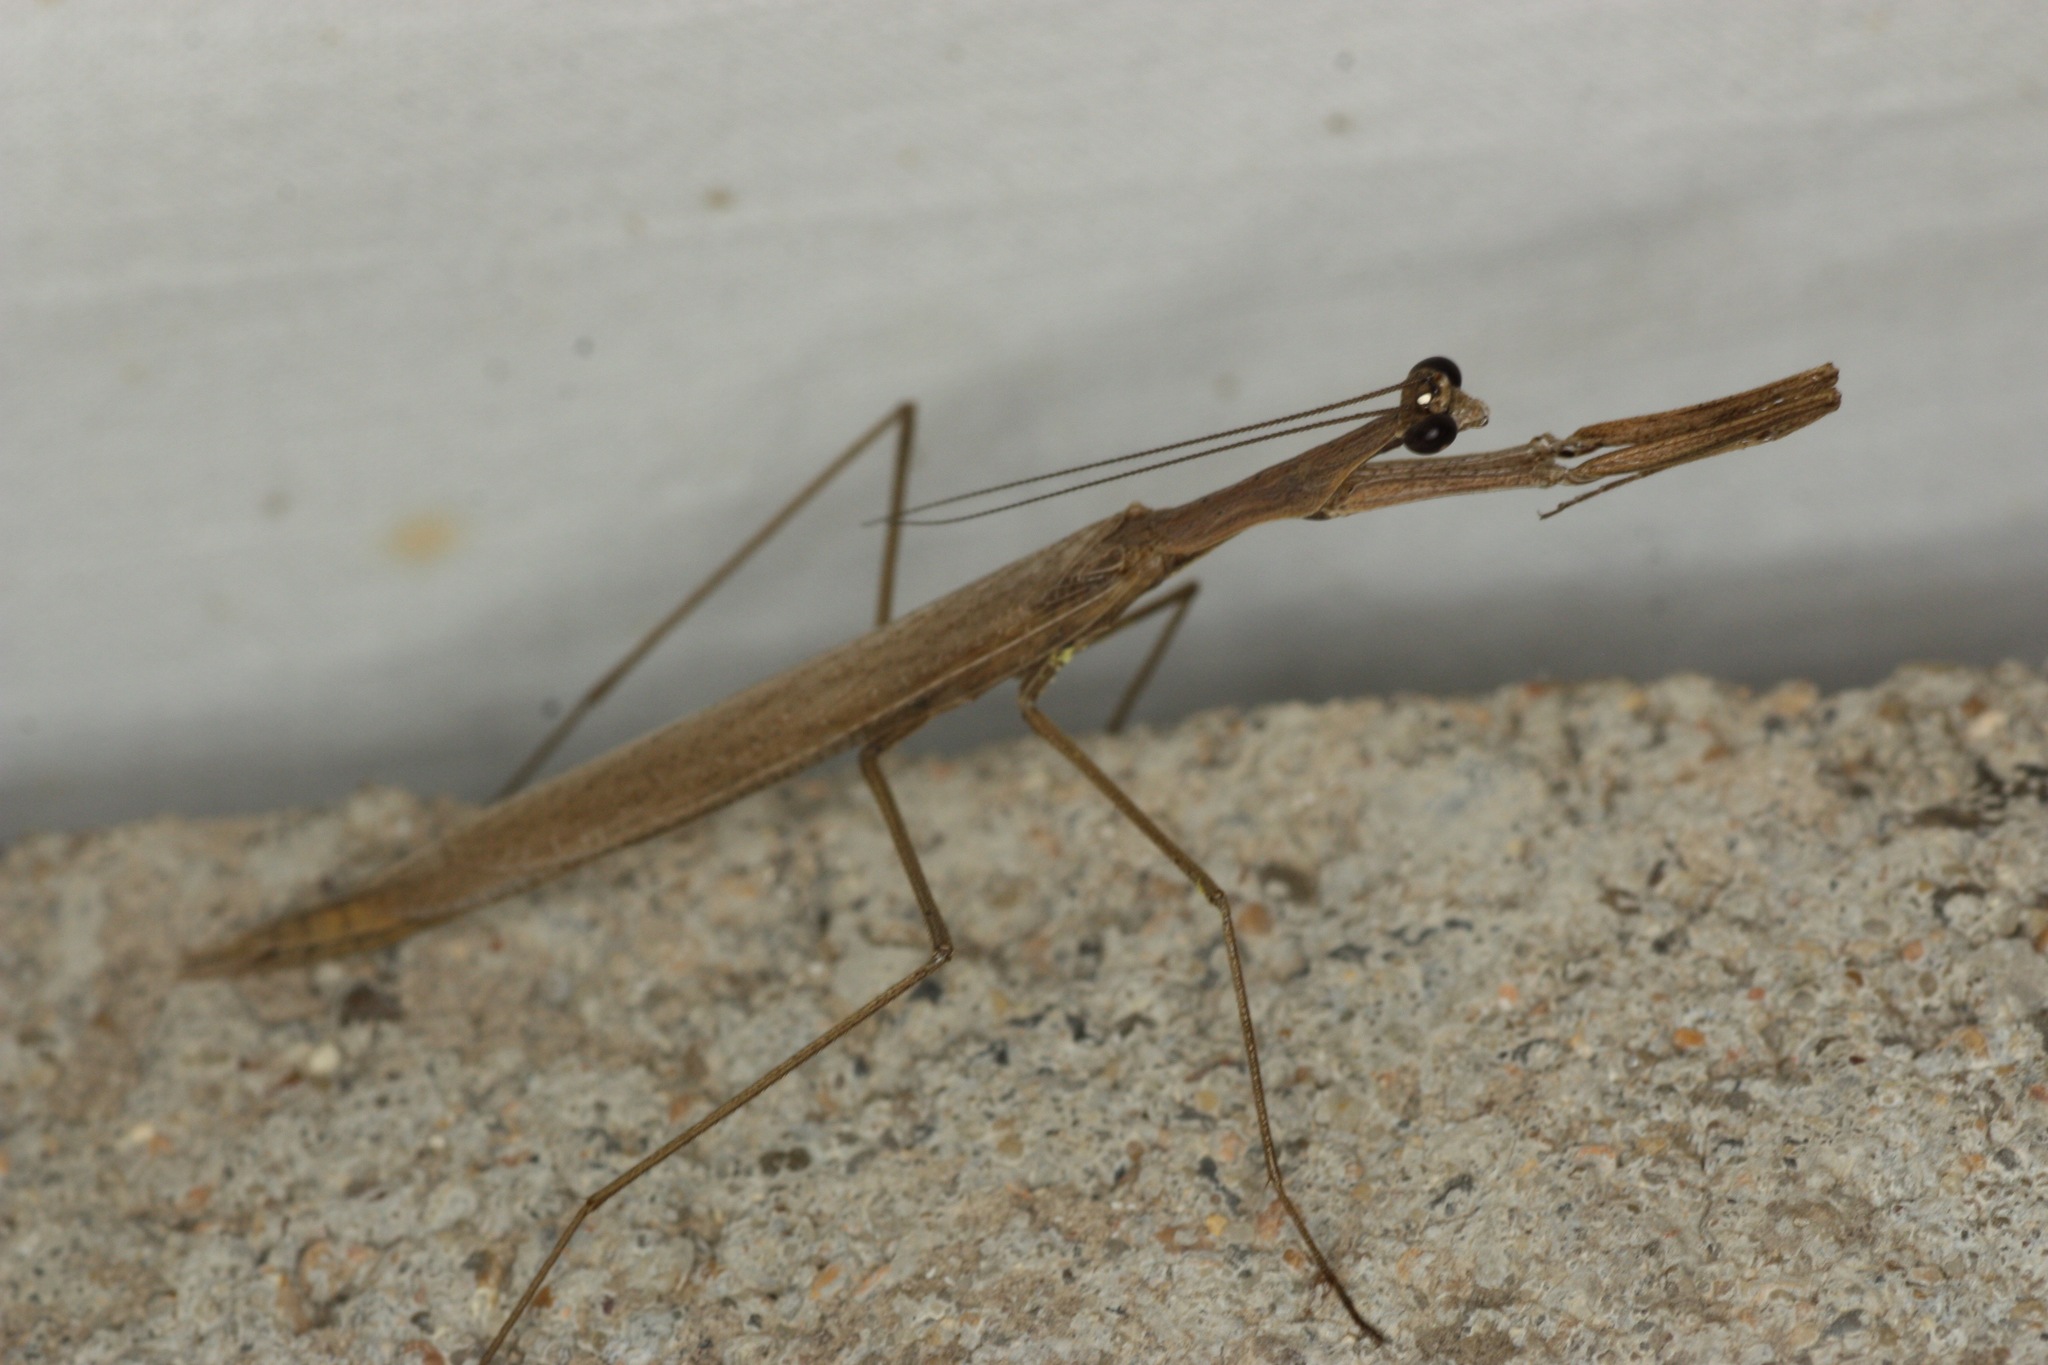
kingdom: Animalia
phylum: Arthropoda
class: Insecta
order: Mantodea
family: Thespidae
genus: Oligonicella
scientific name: Oligonicella scudderi
